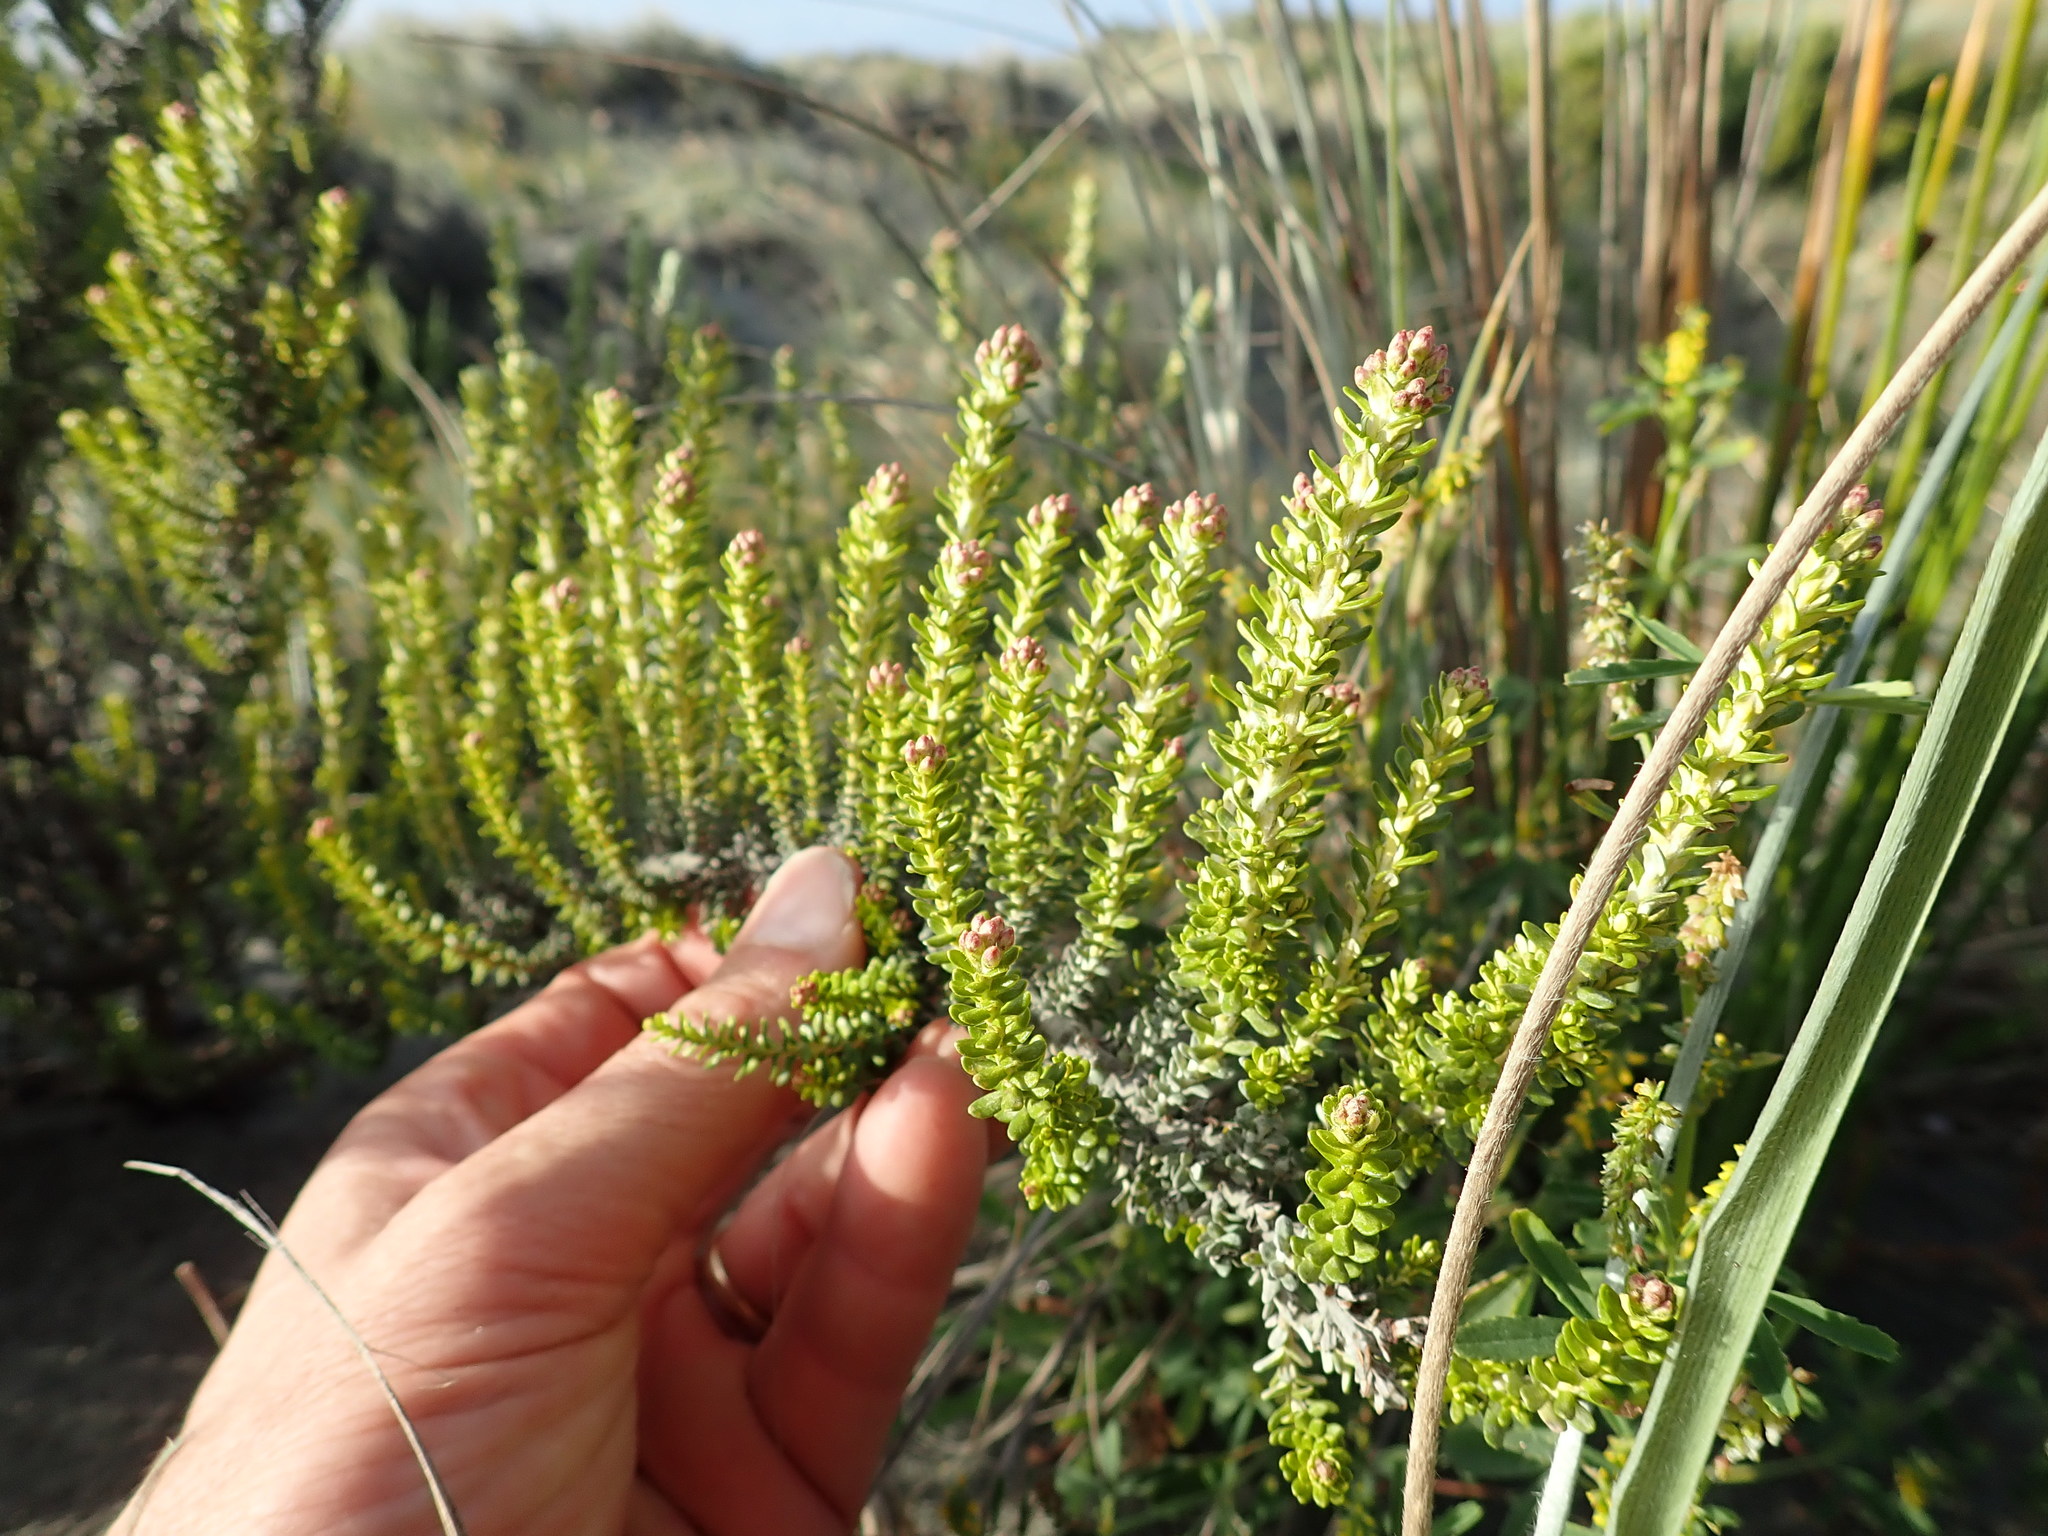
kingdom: Plantae
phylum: Tracheophyta
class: Magnoliopsida
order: Asterales
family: Asteraceae
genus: Ozothamnus
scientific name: Ozothamnus leptophyllus
